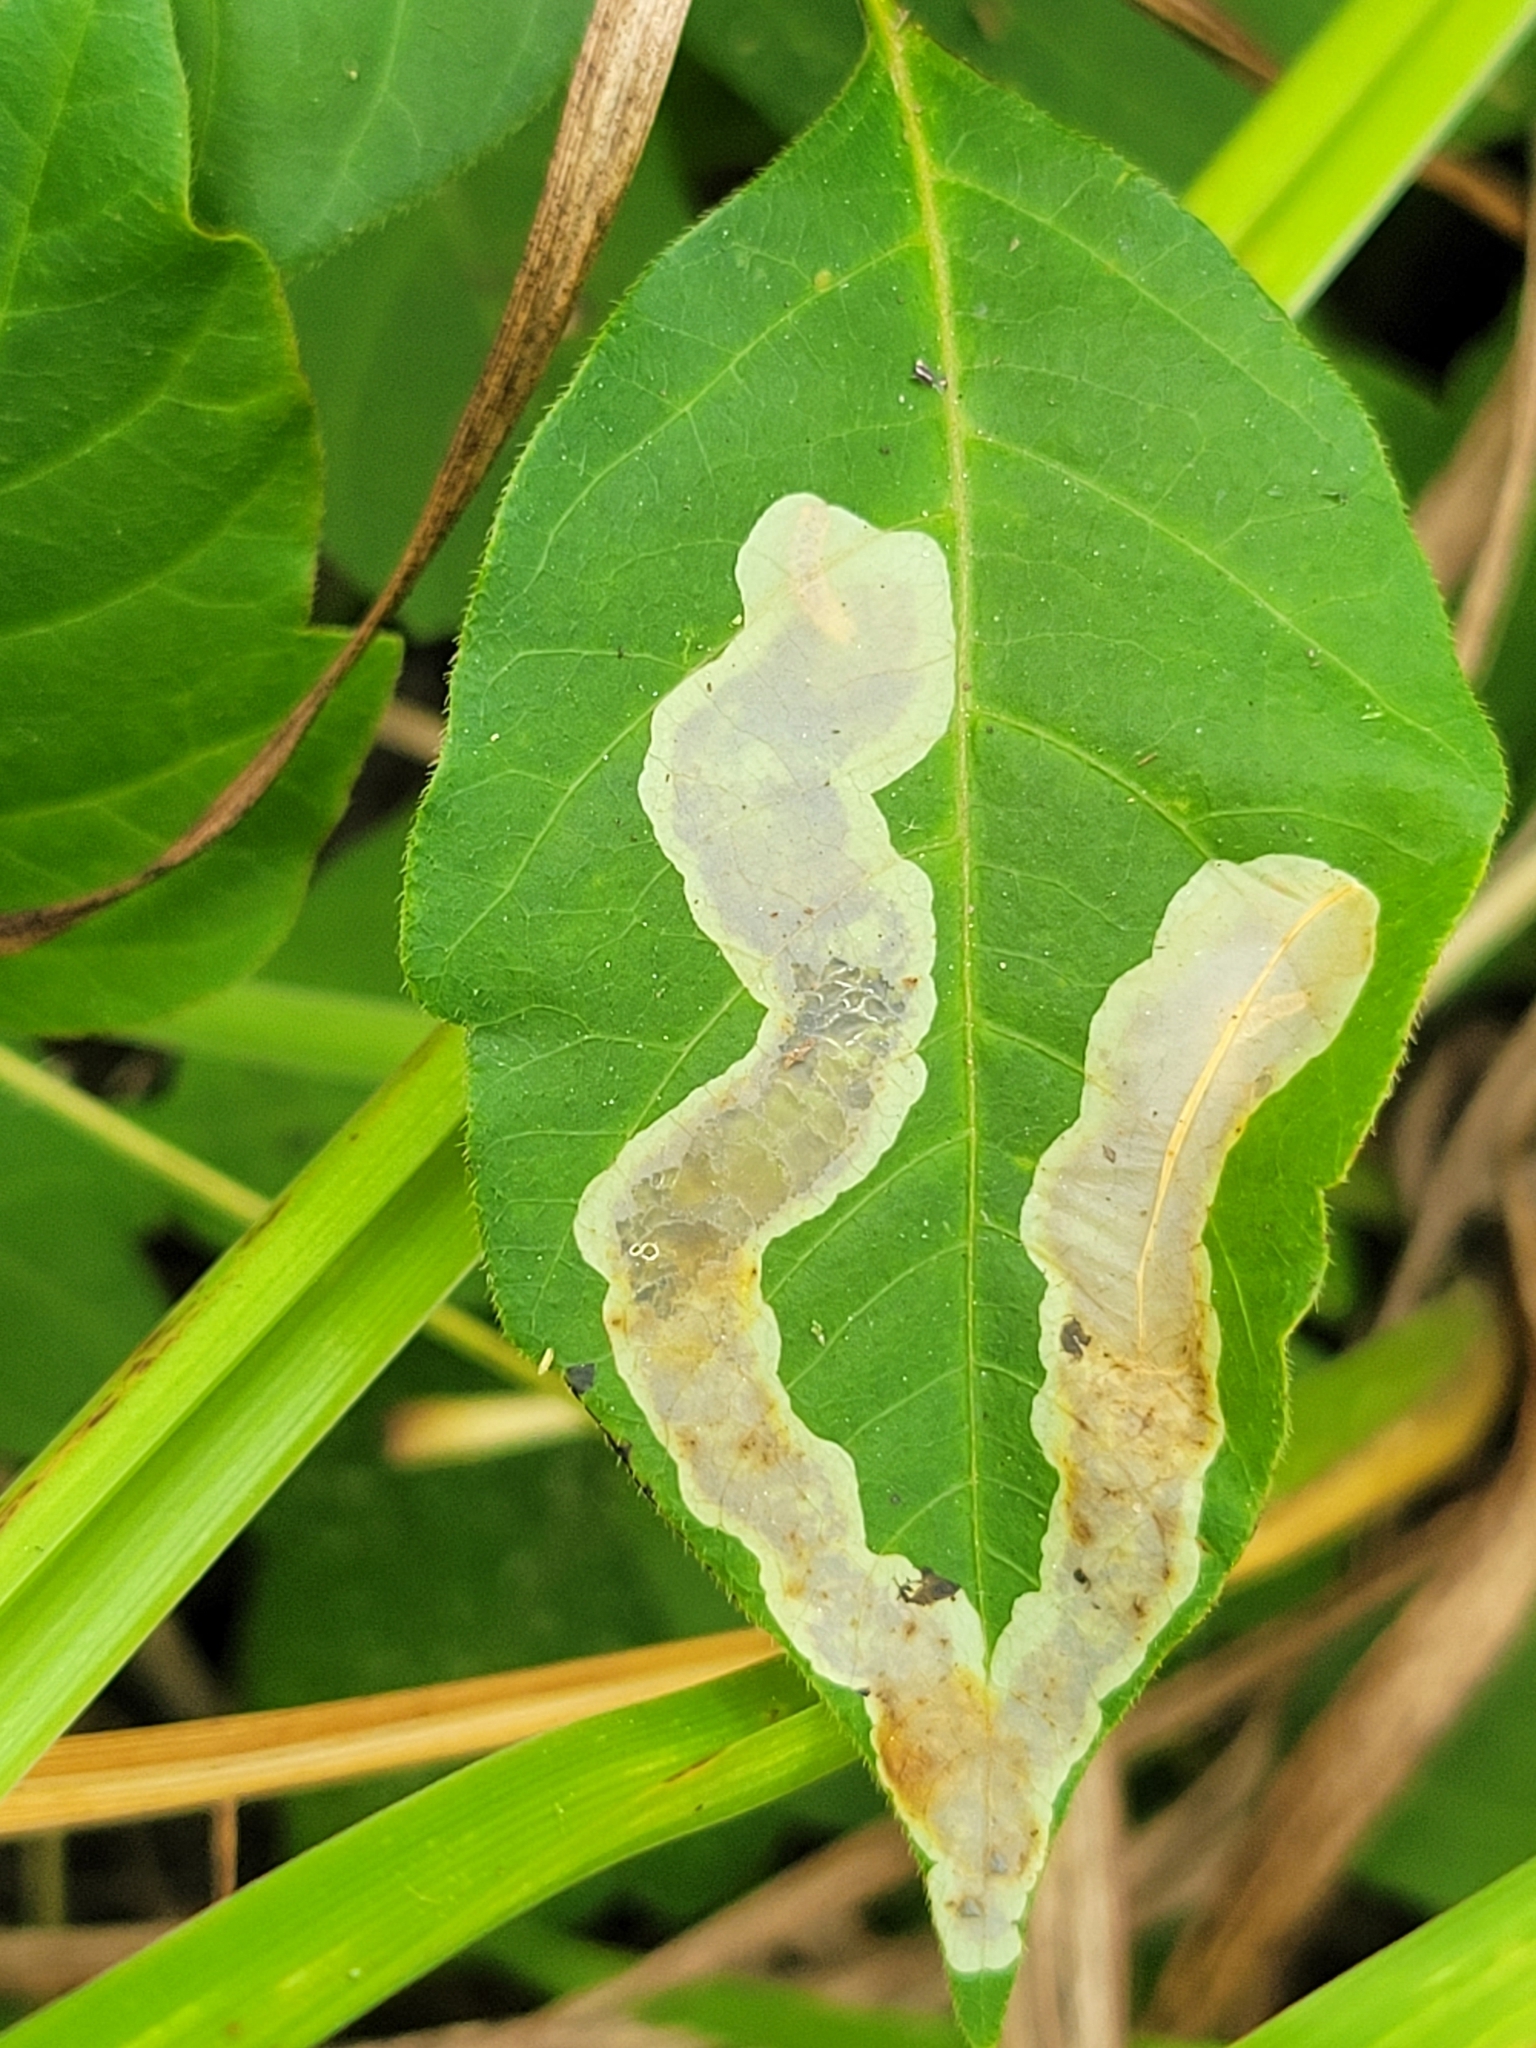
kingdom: Animalia
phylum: Arthropoda
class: Insecta
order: Lepidoptera
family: Gracillariidae
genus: Cameraria
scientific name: Cameraria guttifinitella
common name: Poison ivy leaf-miner moth
